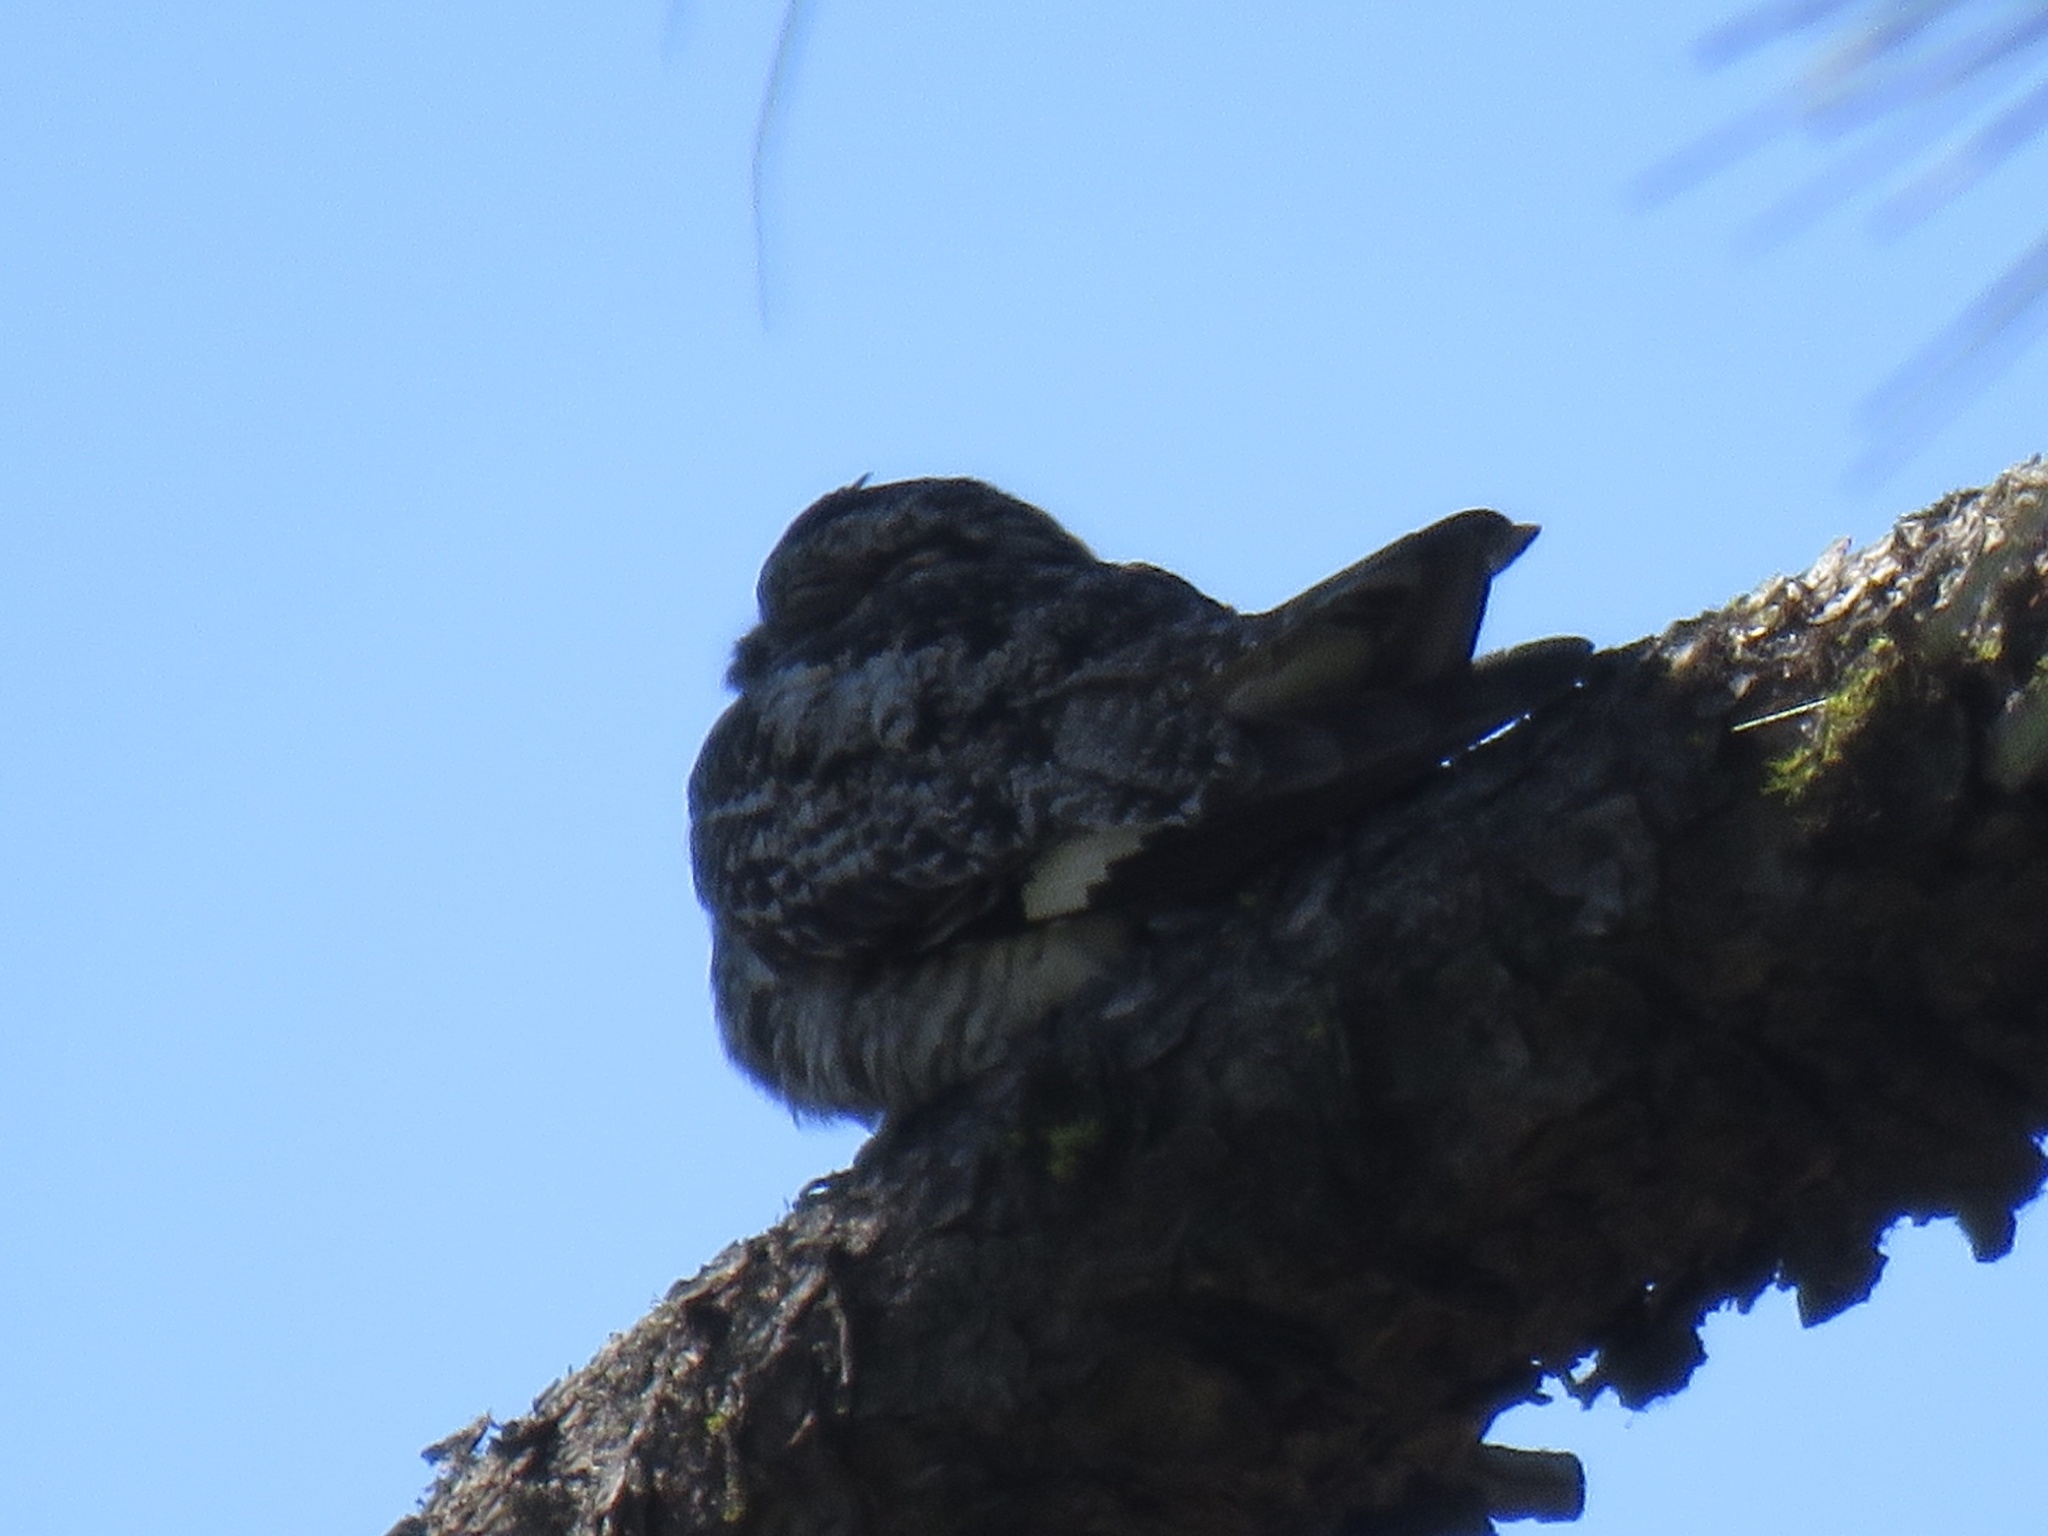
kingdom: Animalia
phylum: Chordata
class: Aves
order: Caprimulgiformes
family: Caprimulgidae
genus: Chordeiles
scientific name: Chordeiles minor
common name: Common nighthawk
